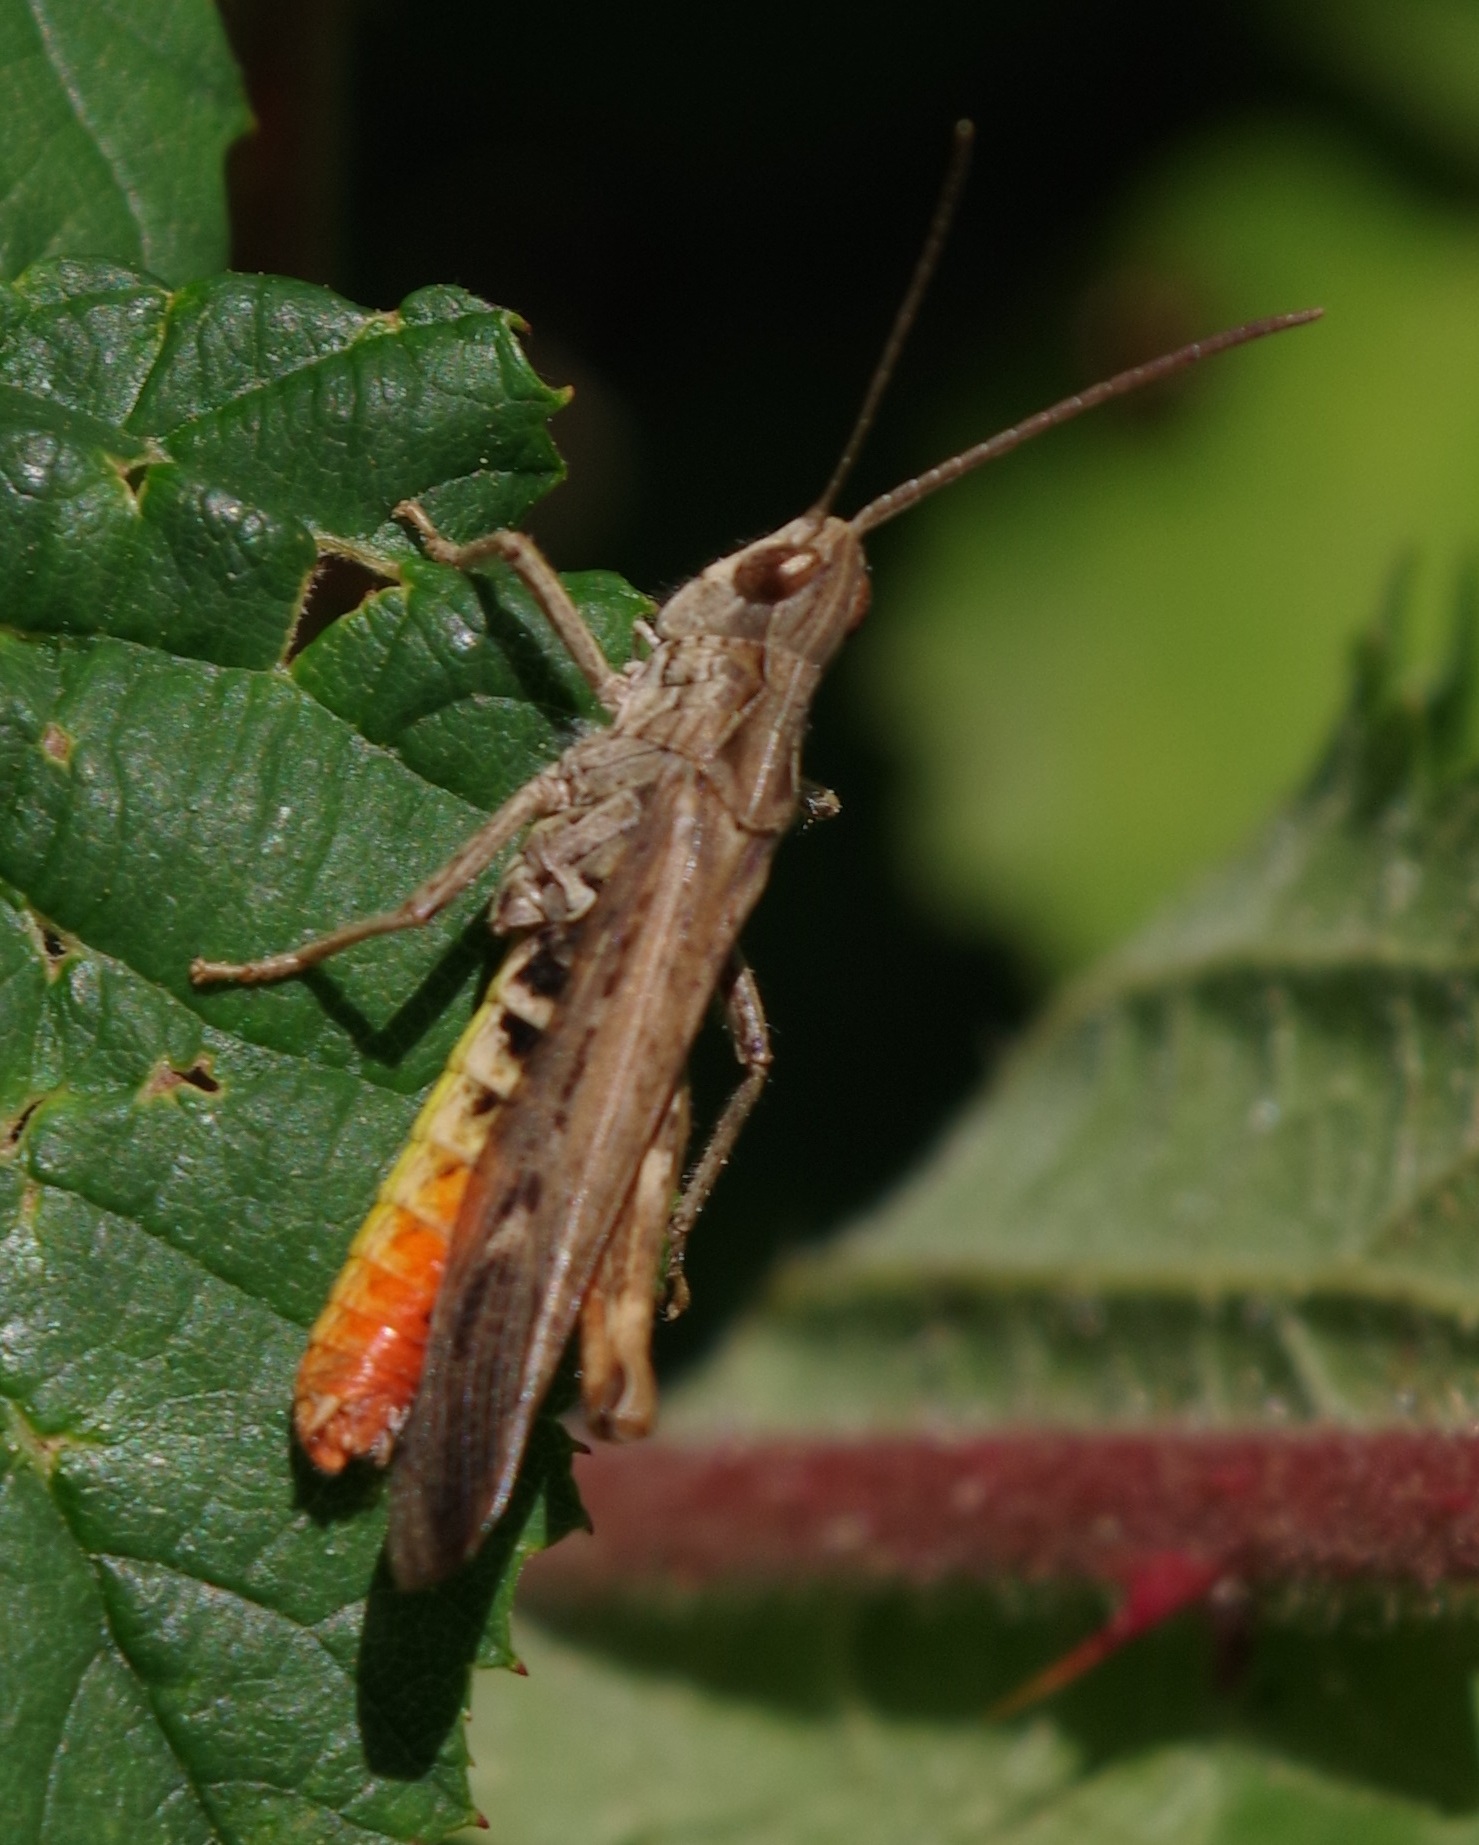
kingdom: Animalia
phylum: Arthropoda
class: Insecta
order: Orthoptera
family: Acrididae
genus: Chorthippus
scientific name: Chorthippus brunneus
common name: Field grasshopper
